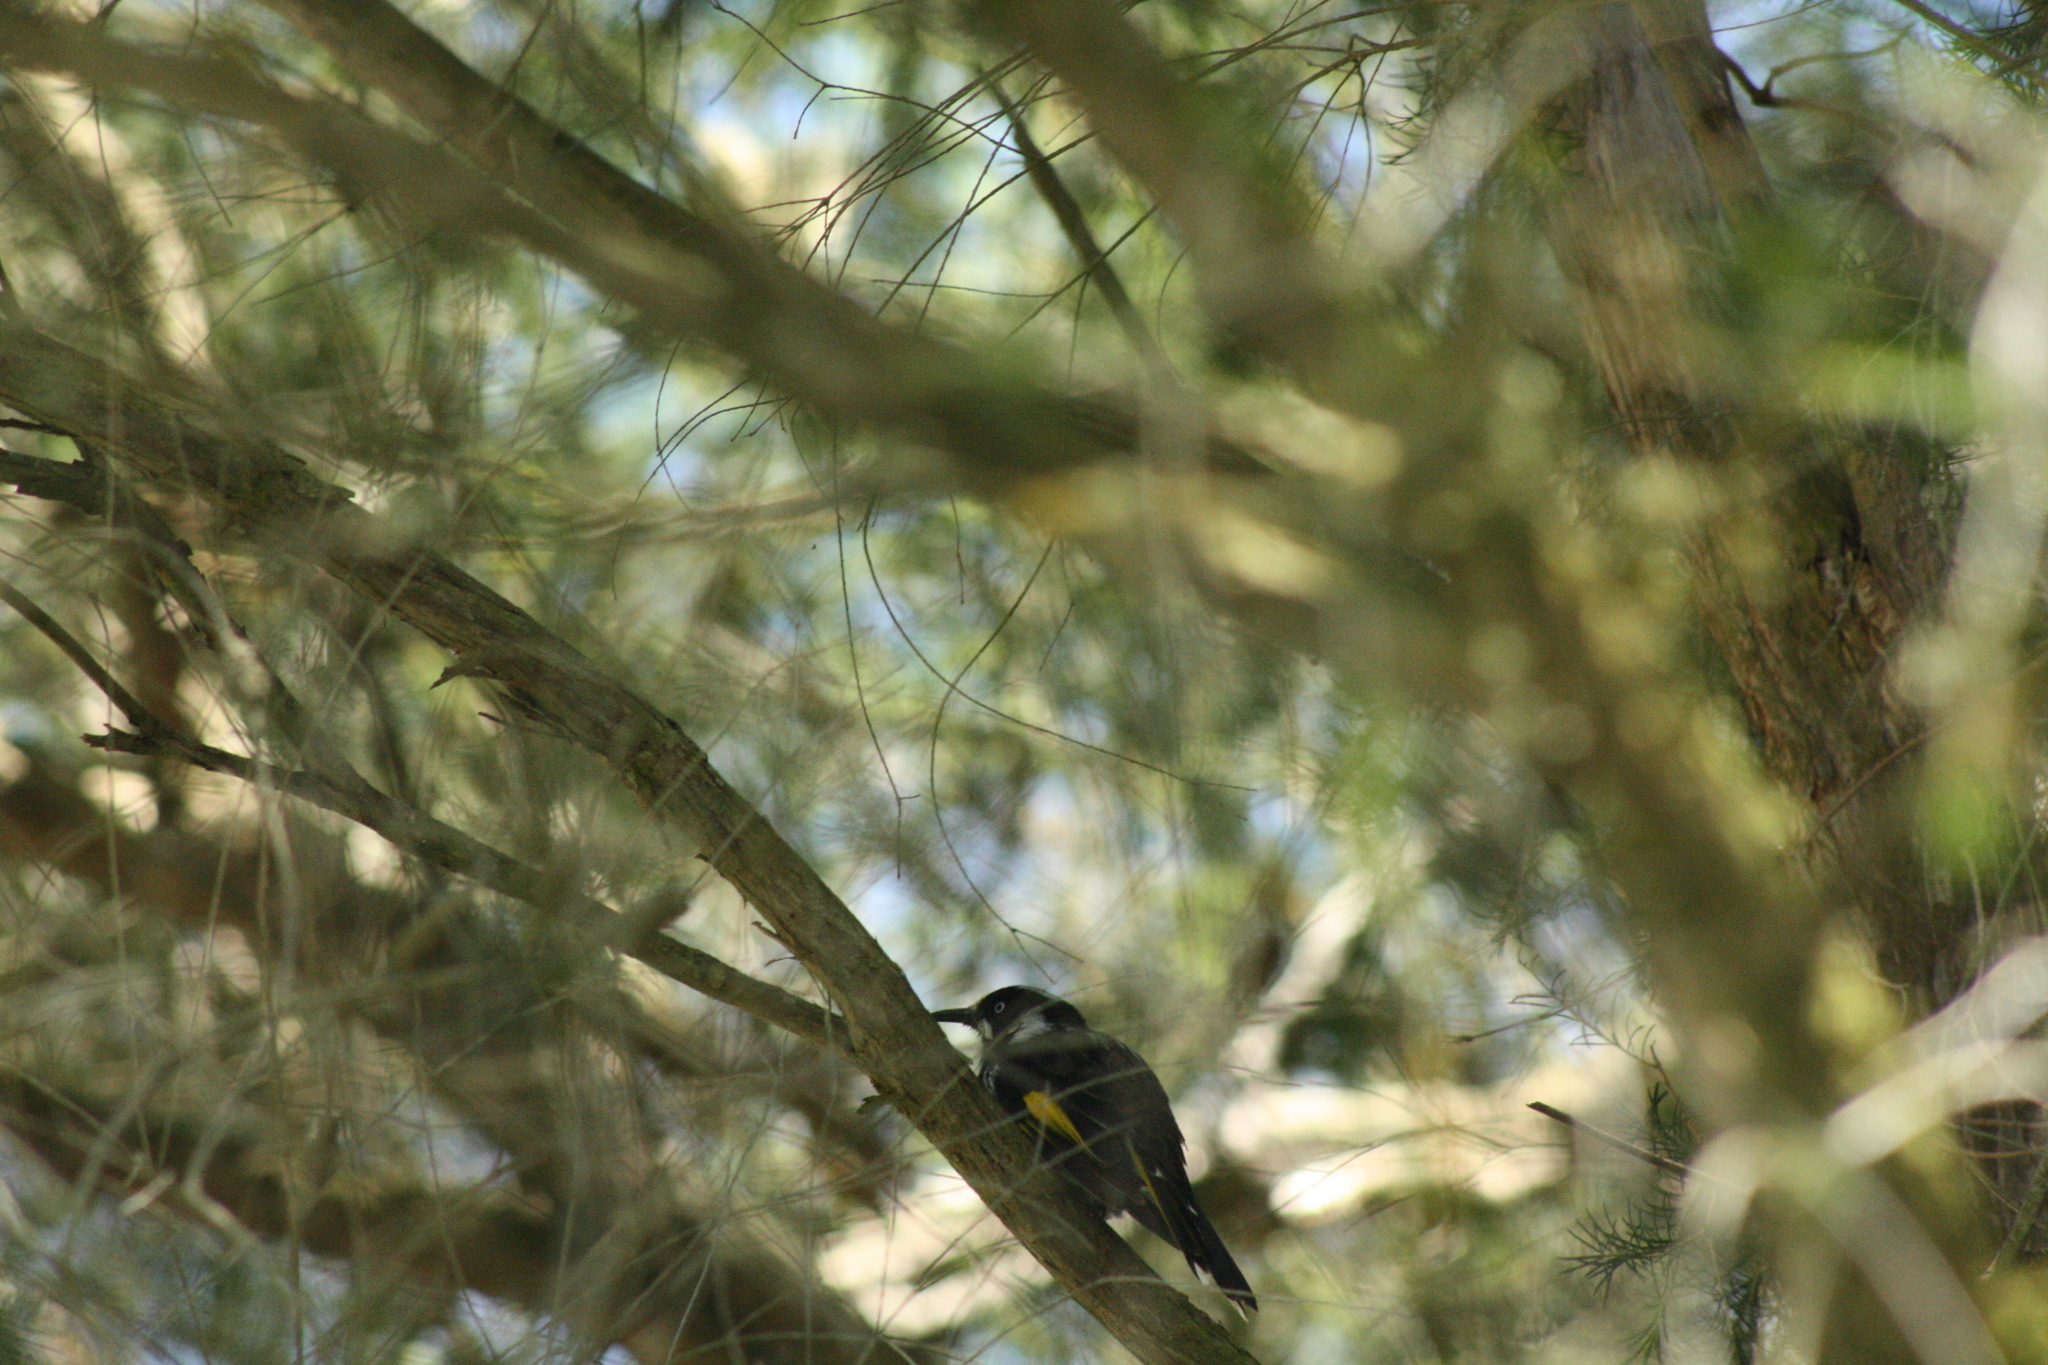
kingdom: Animalia
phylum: Chordata
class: Aves
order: Passeriformes
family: Meliphagidae
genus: Phylidonyris
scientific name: Phylidonyris novaehollandiae
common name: New holland honeyeater
